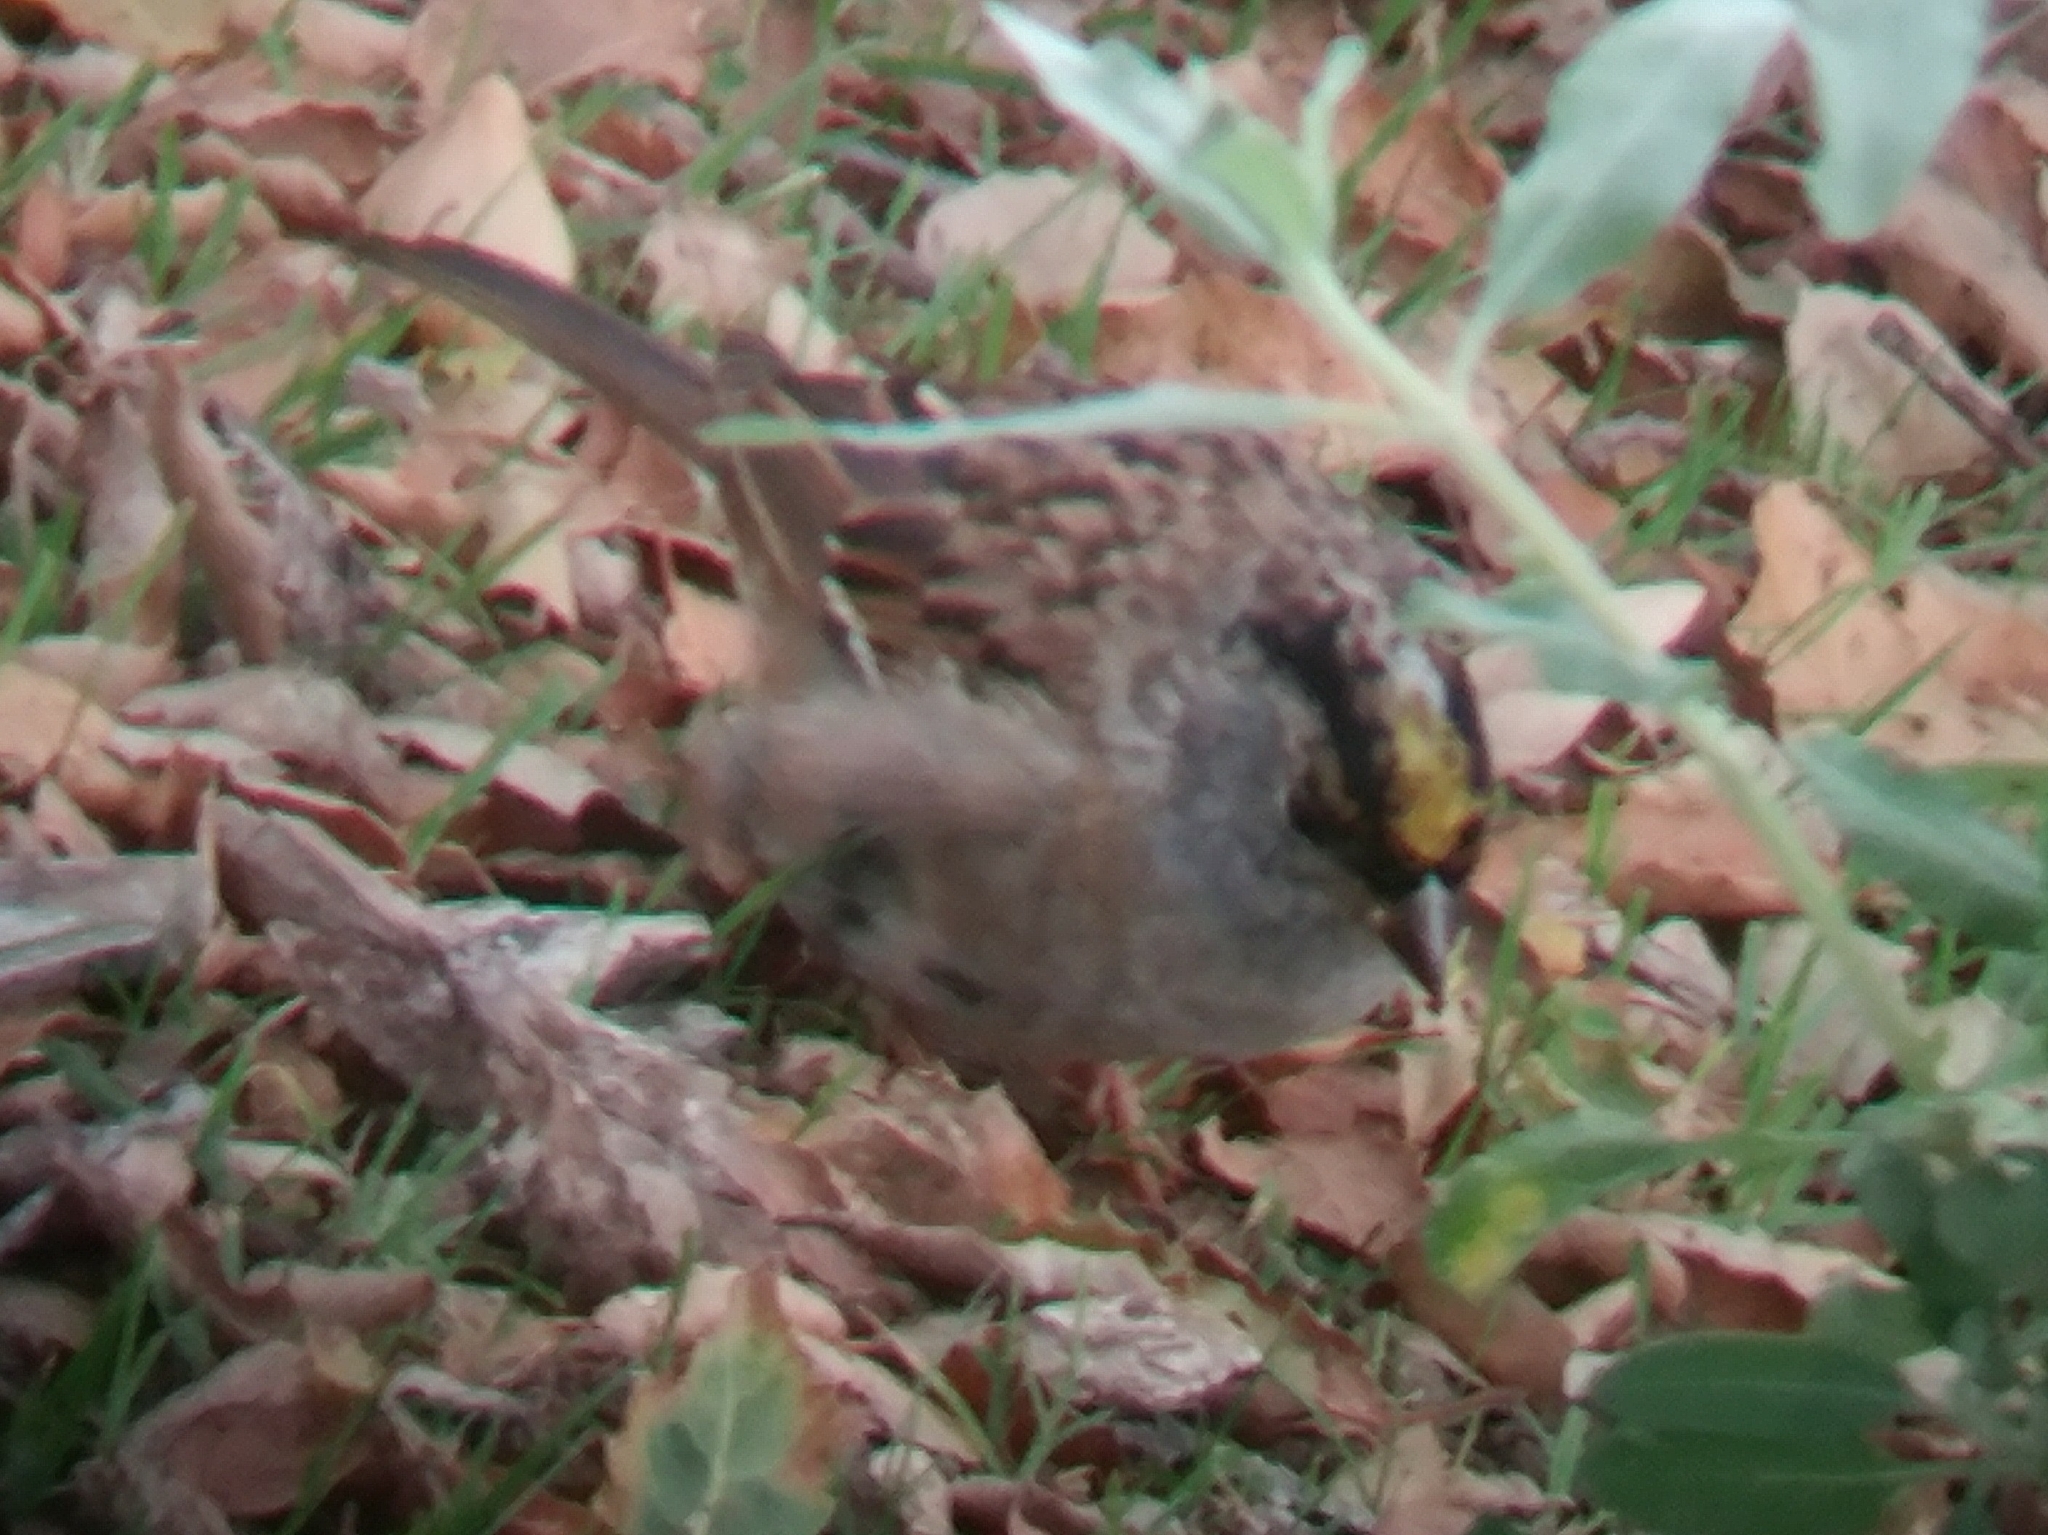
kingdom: Animalia
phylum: Chordata
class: Aves
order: Passeriformes
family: Passerellidae
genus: Zonotrichia
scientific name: Zonotrichia atricapilla
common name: Golden-crowned sparrow
